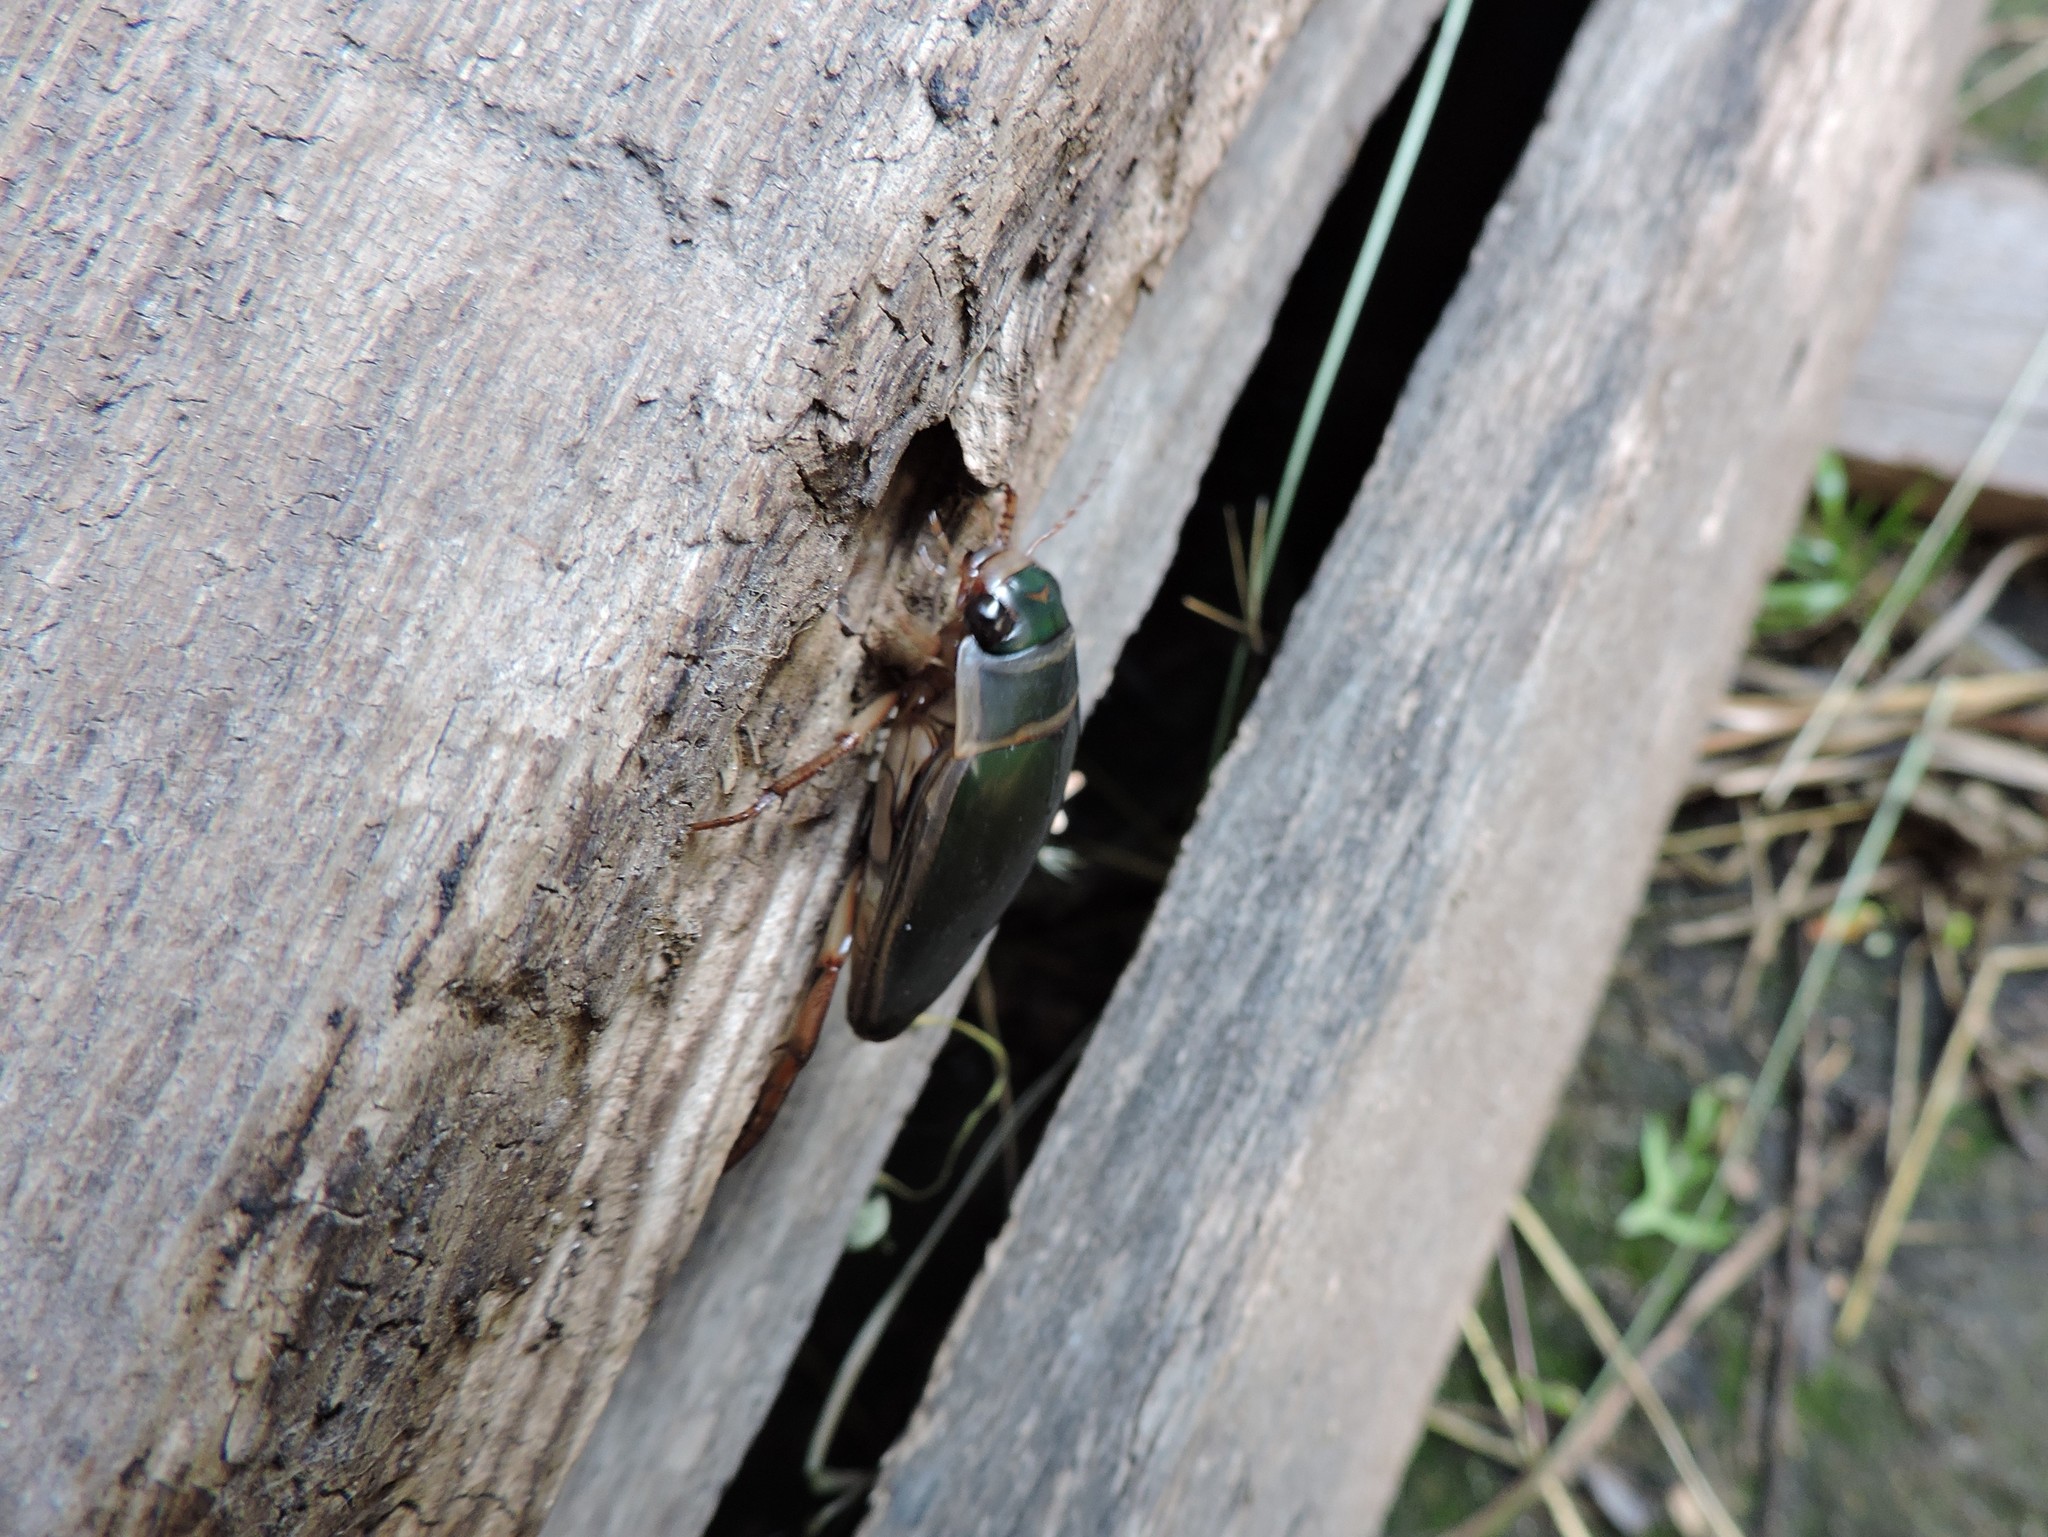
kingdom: Animalia
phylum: Arthropoda
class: Insecta
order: Coleoptera
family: Dytiscidae
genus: Dytiscus
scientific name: Dytiscus marginalis
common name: Great water beetle
